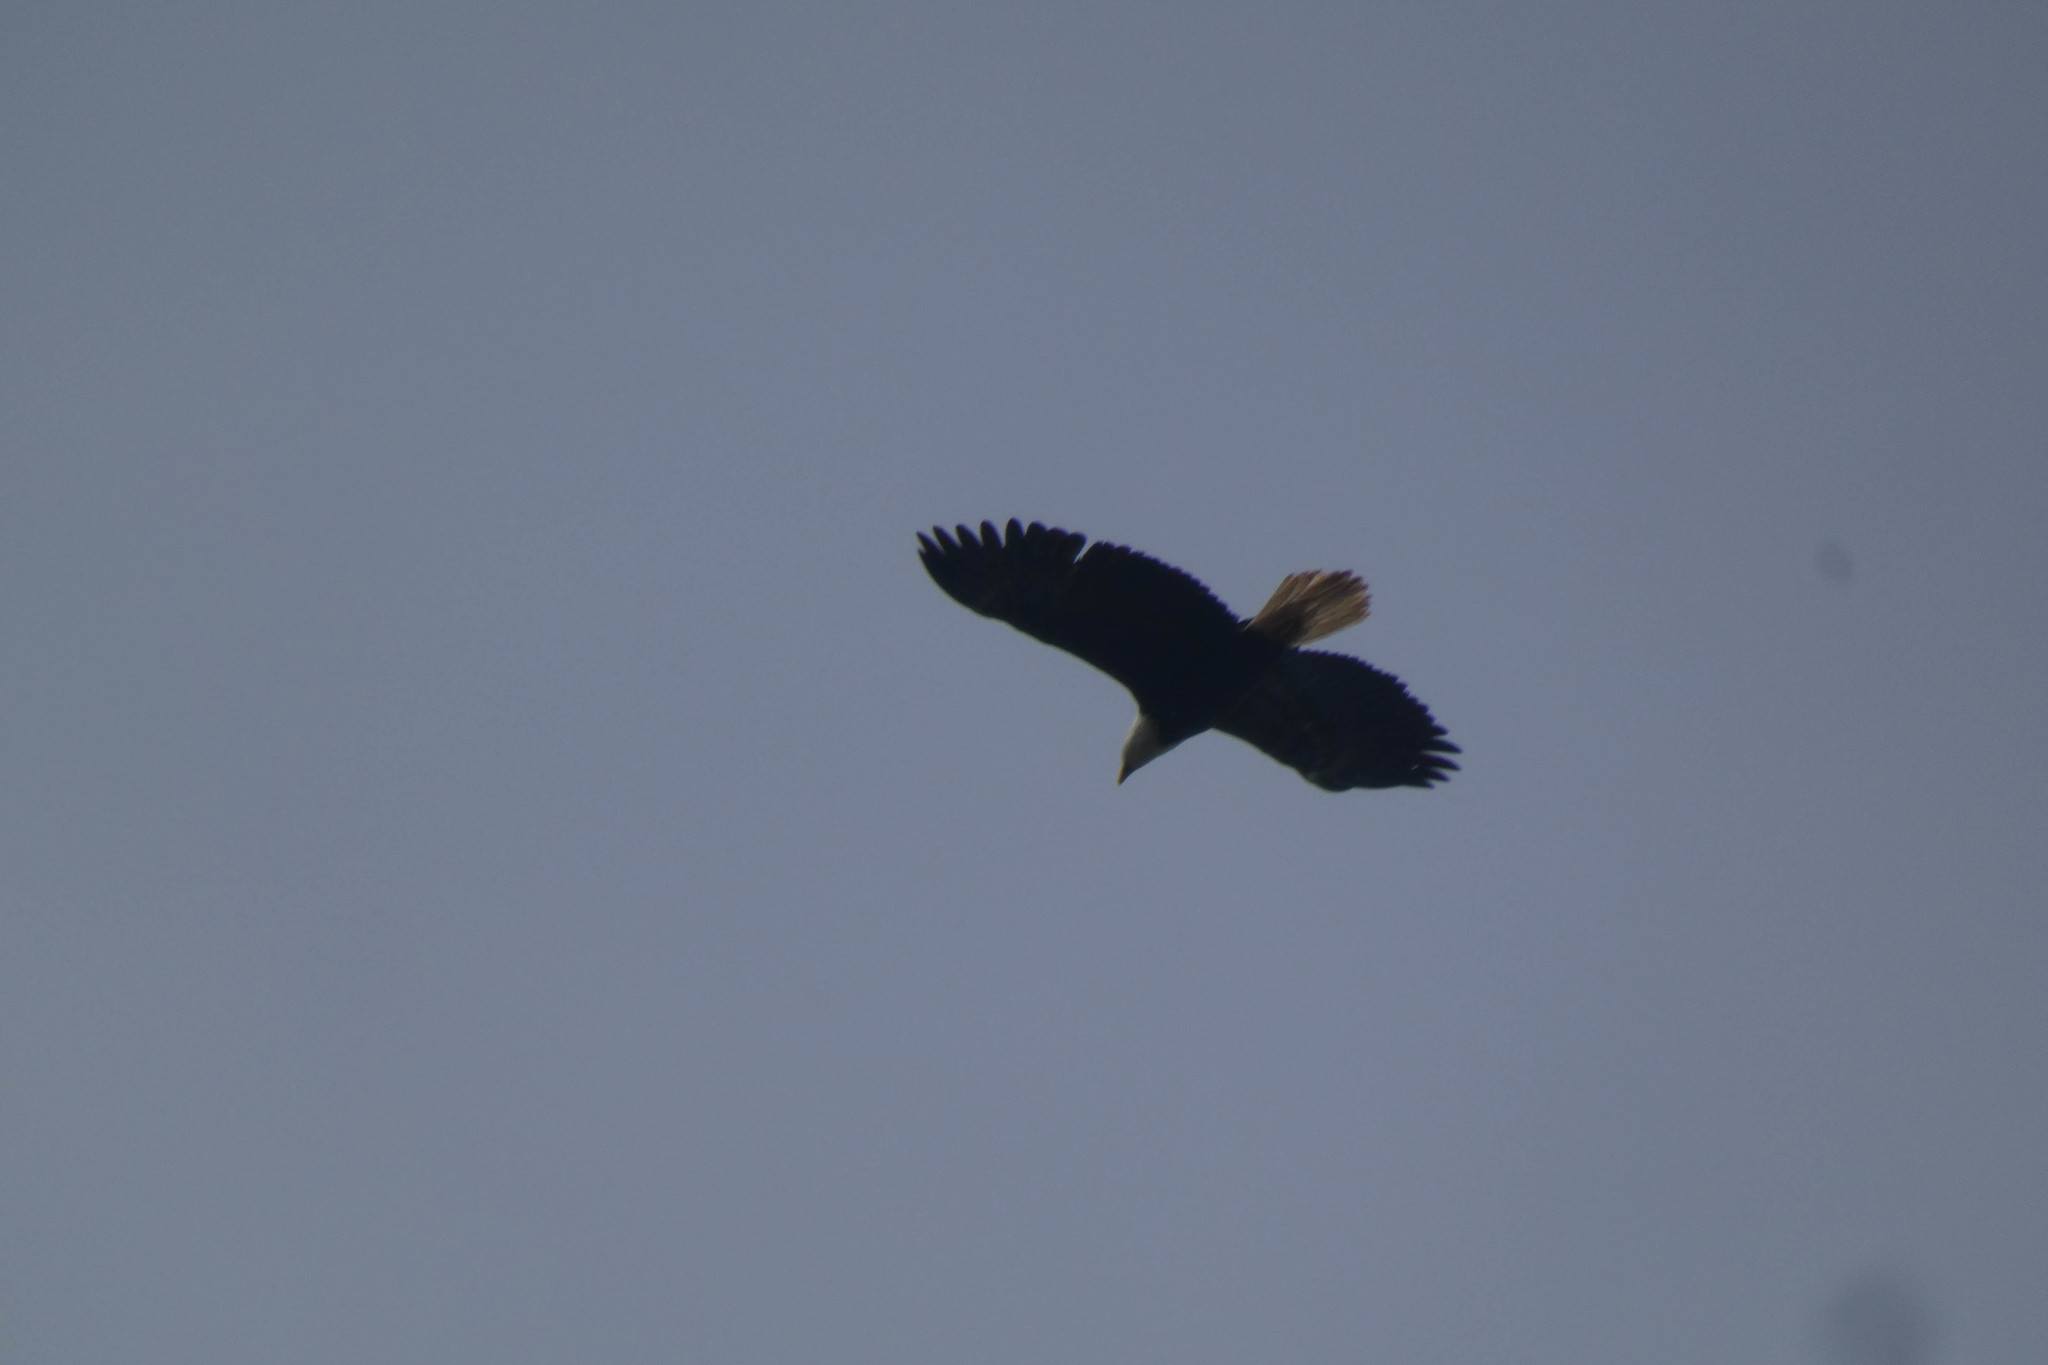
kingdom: Animalia
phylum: Chordata
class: Aves
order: Accipitriformes
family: Accipitridae
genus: Haliaeetus
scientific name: Haliaeetus leucocephalus
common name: Bald eagle
